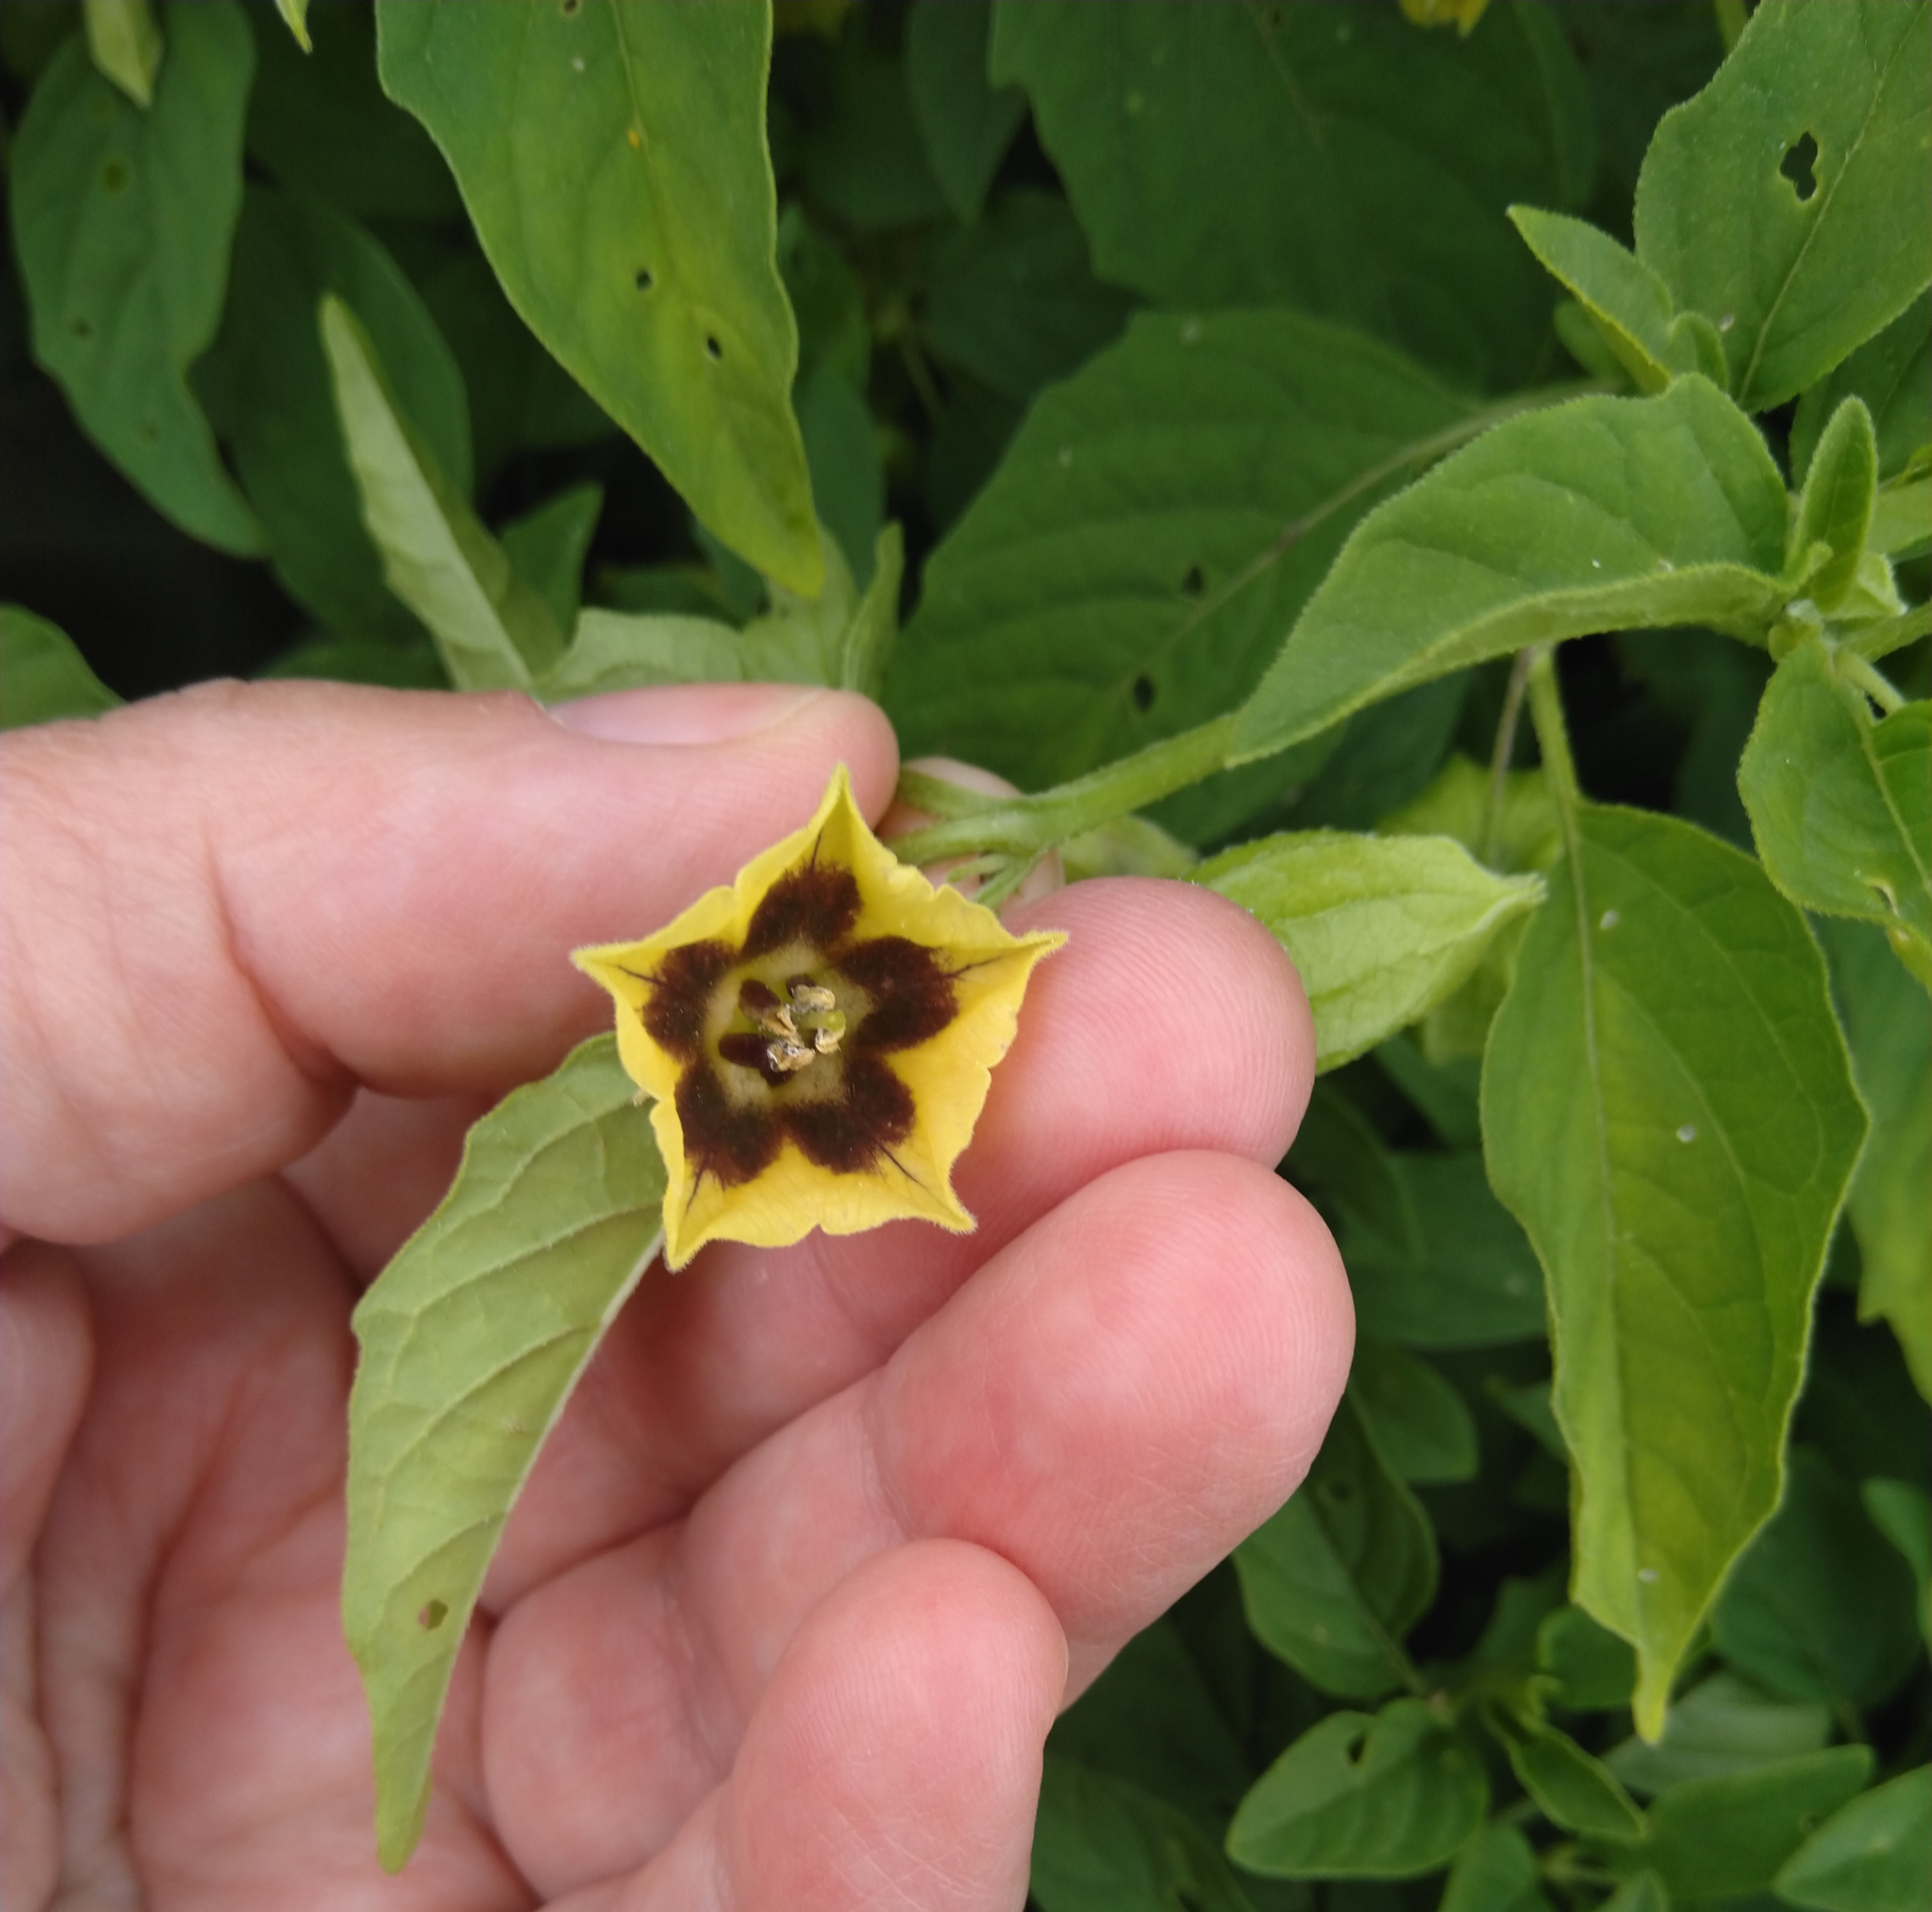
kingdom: Plantae
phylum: Tracheophyta
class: Magnoliopsida
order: Solanales
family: Solanaceae
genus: Physalis
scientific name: Physalis longifolia
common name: Common ground-cherry
